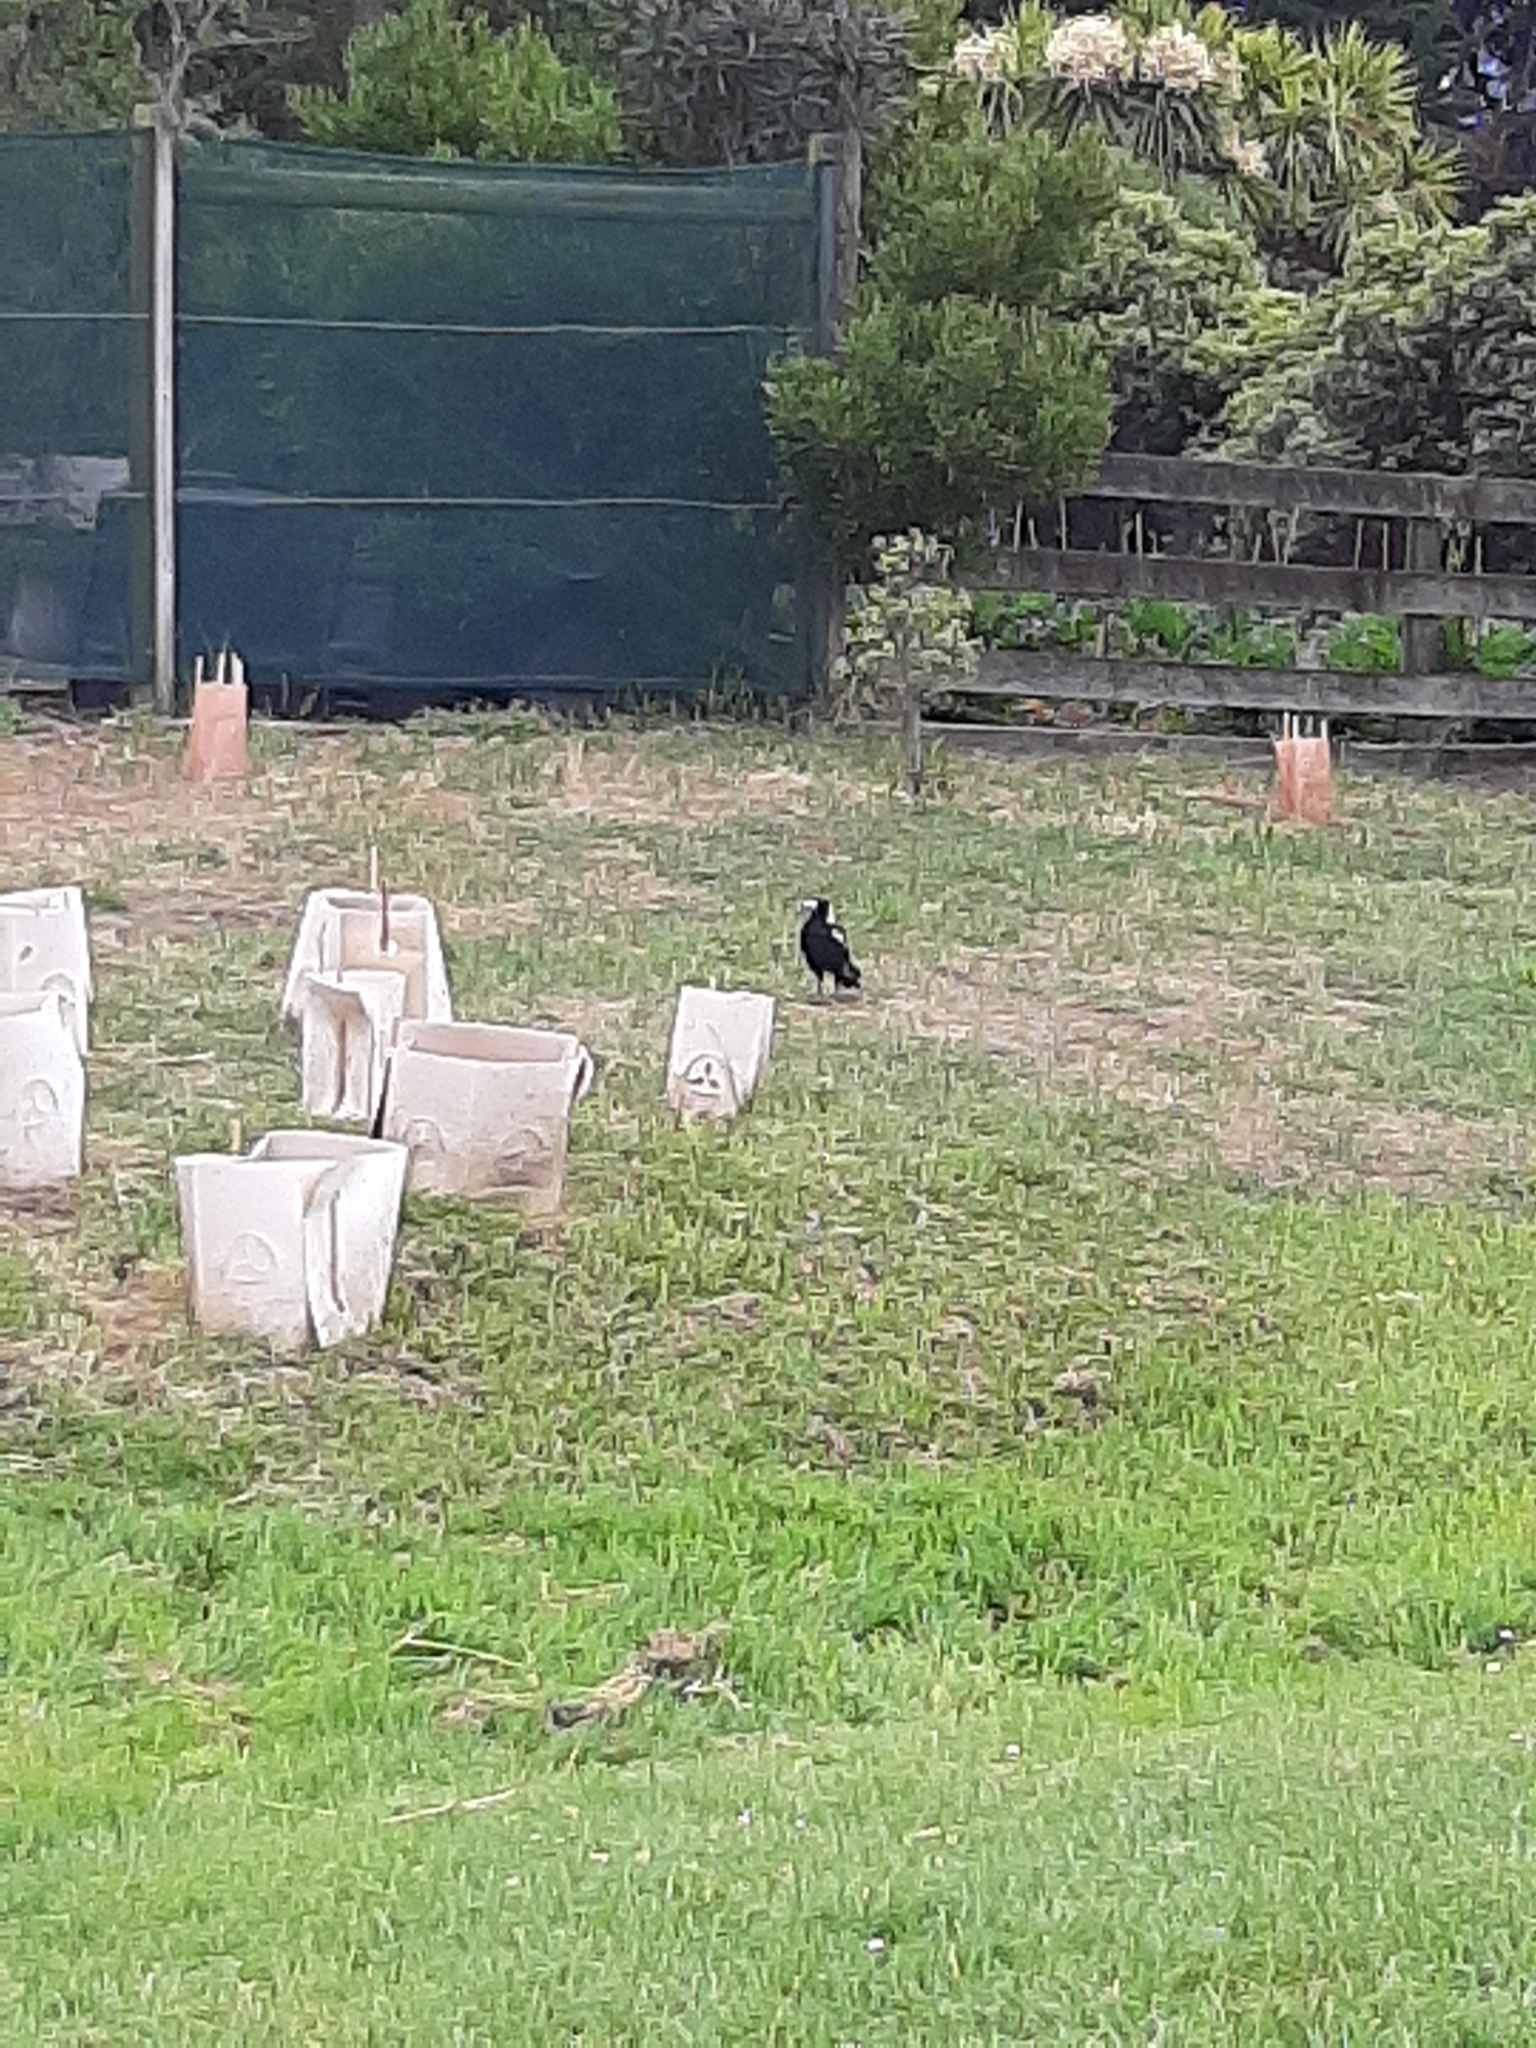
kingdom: Animalia
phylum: Chordata
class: Aves
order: Passeriformes
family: Cracticidae
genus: Gymnorhina
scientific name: Gymnorhina tibicen
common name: Australian magpie
